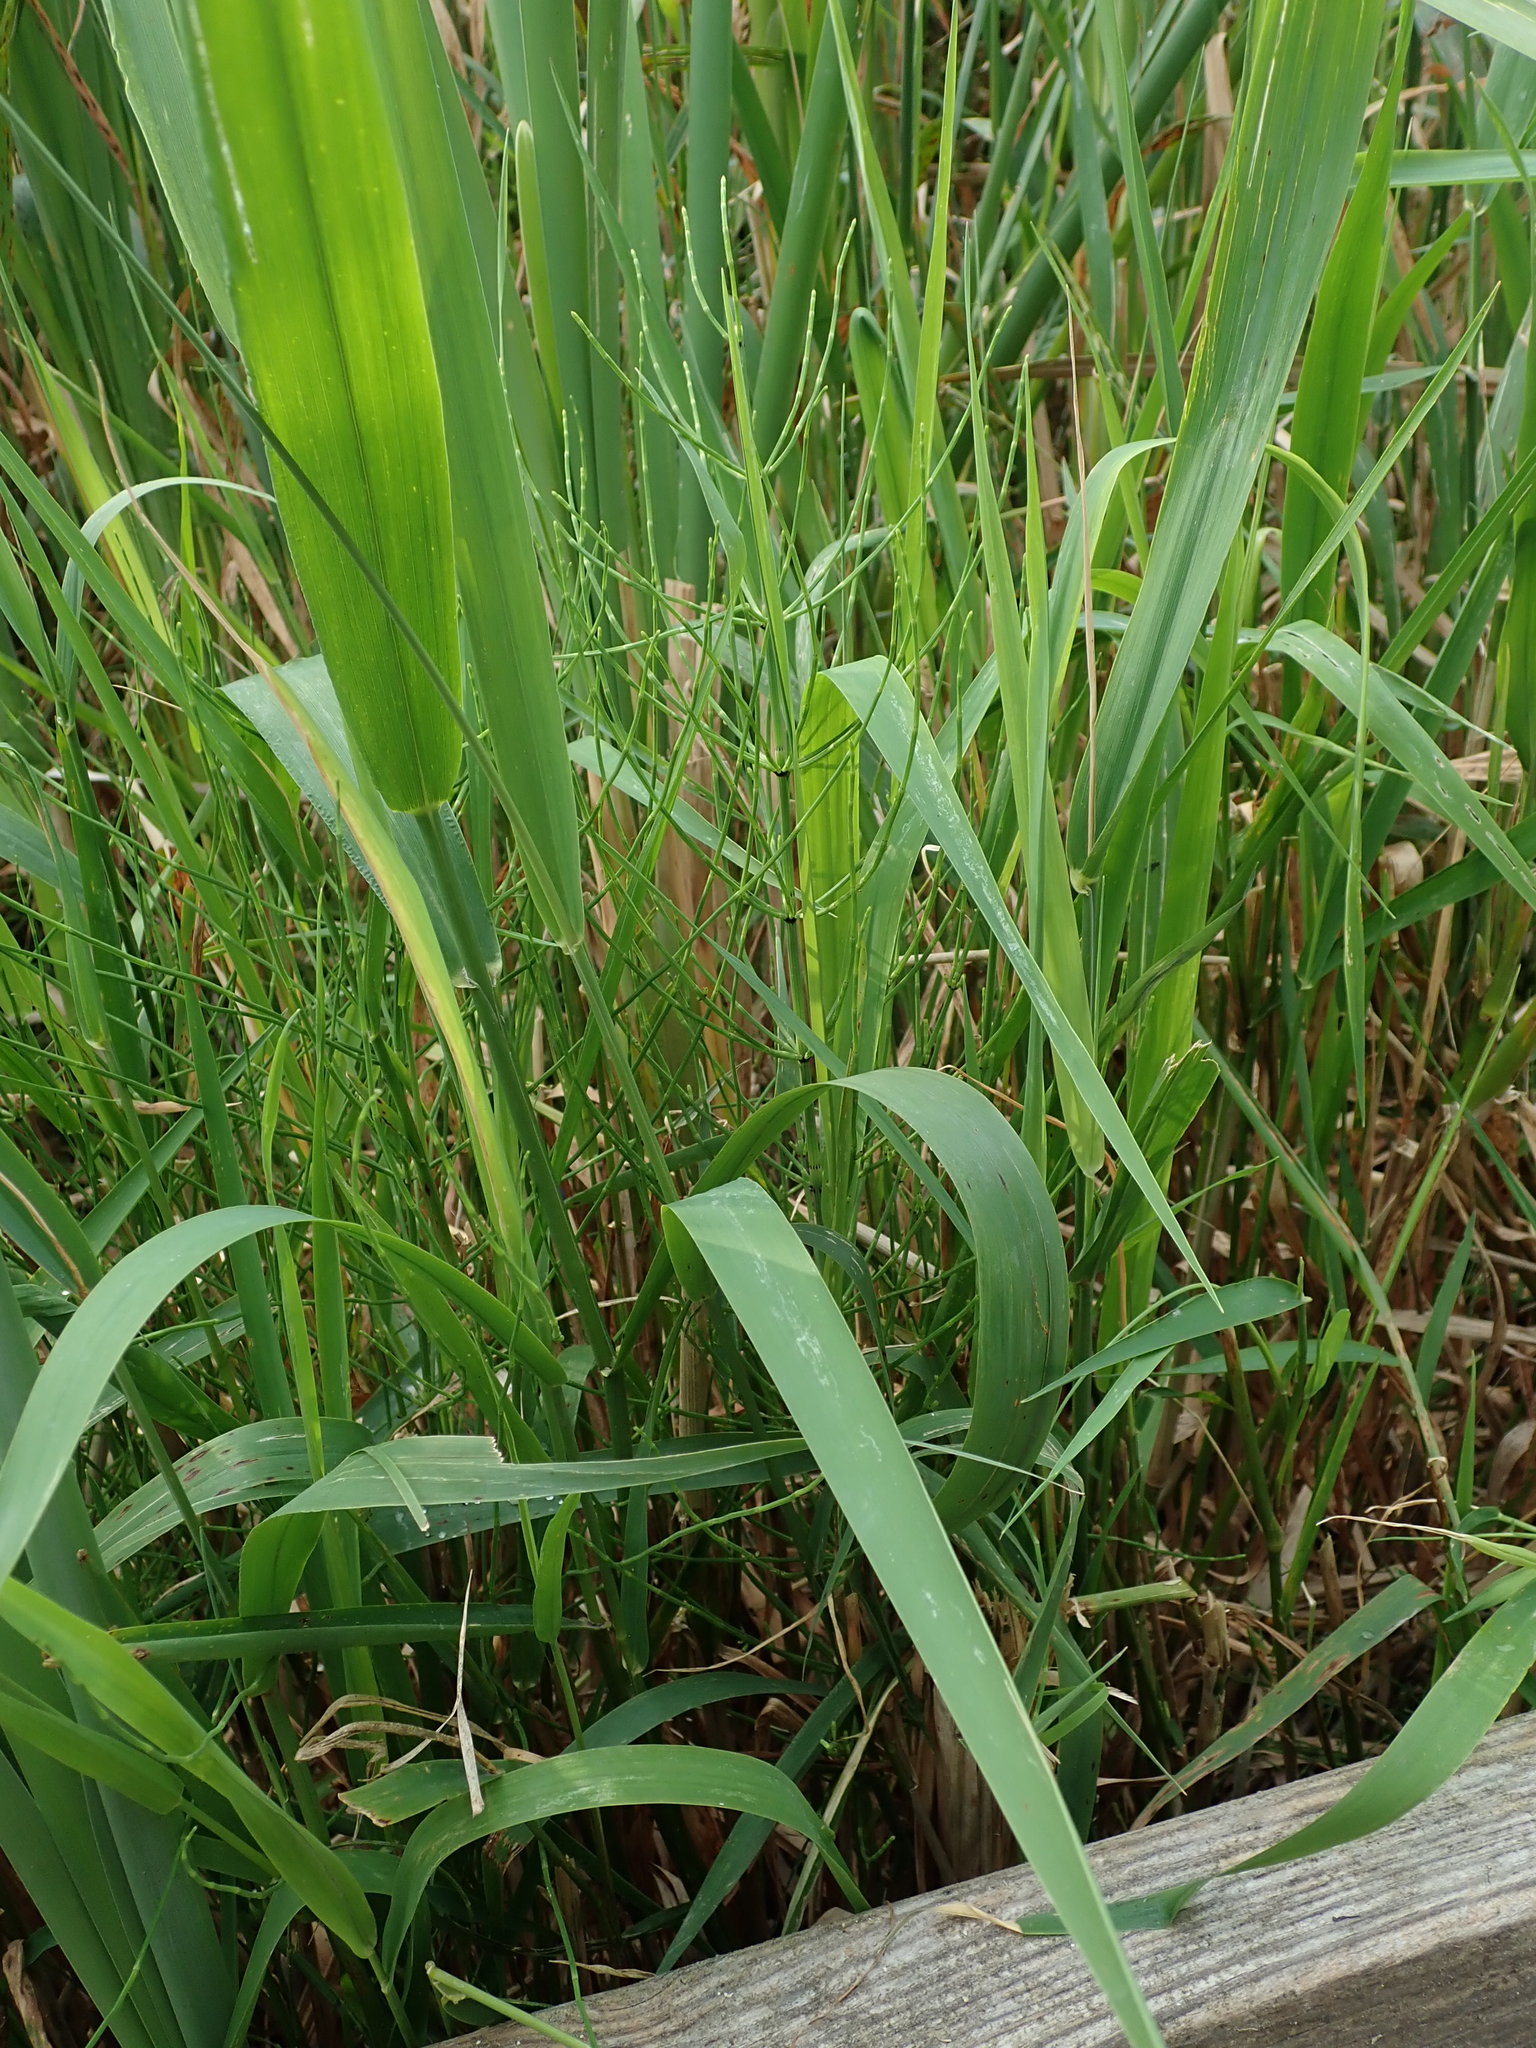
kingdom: Plantae
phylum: Tracheophyta
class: Polypodiopsida
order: Equisetales
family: Equisetaceae
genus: Equisetum
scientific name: Equisetum palustre
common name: Marsh horsetail
